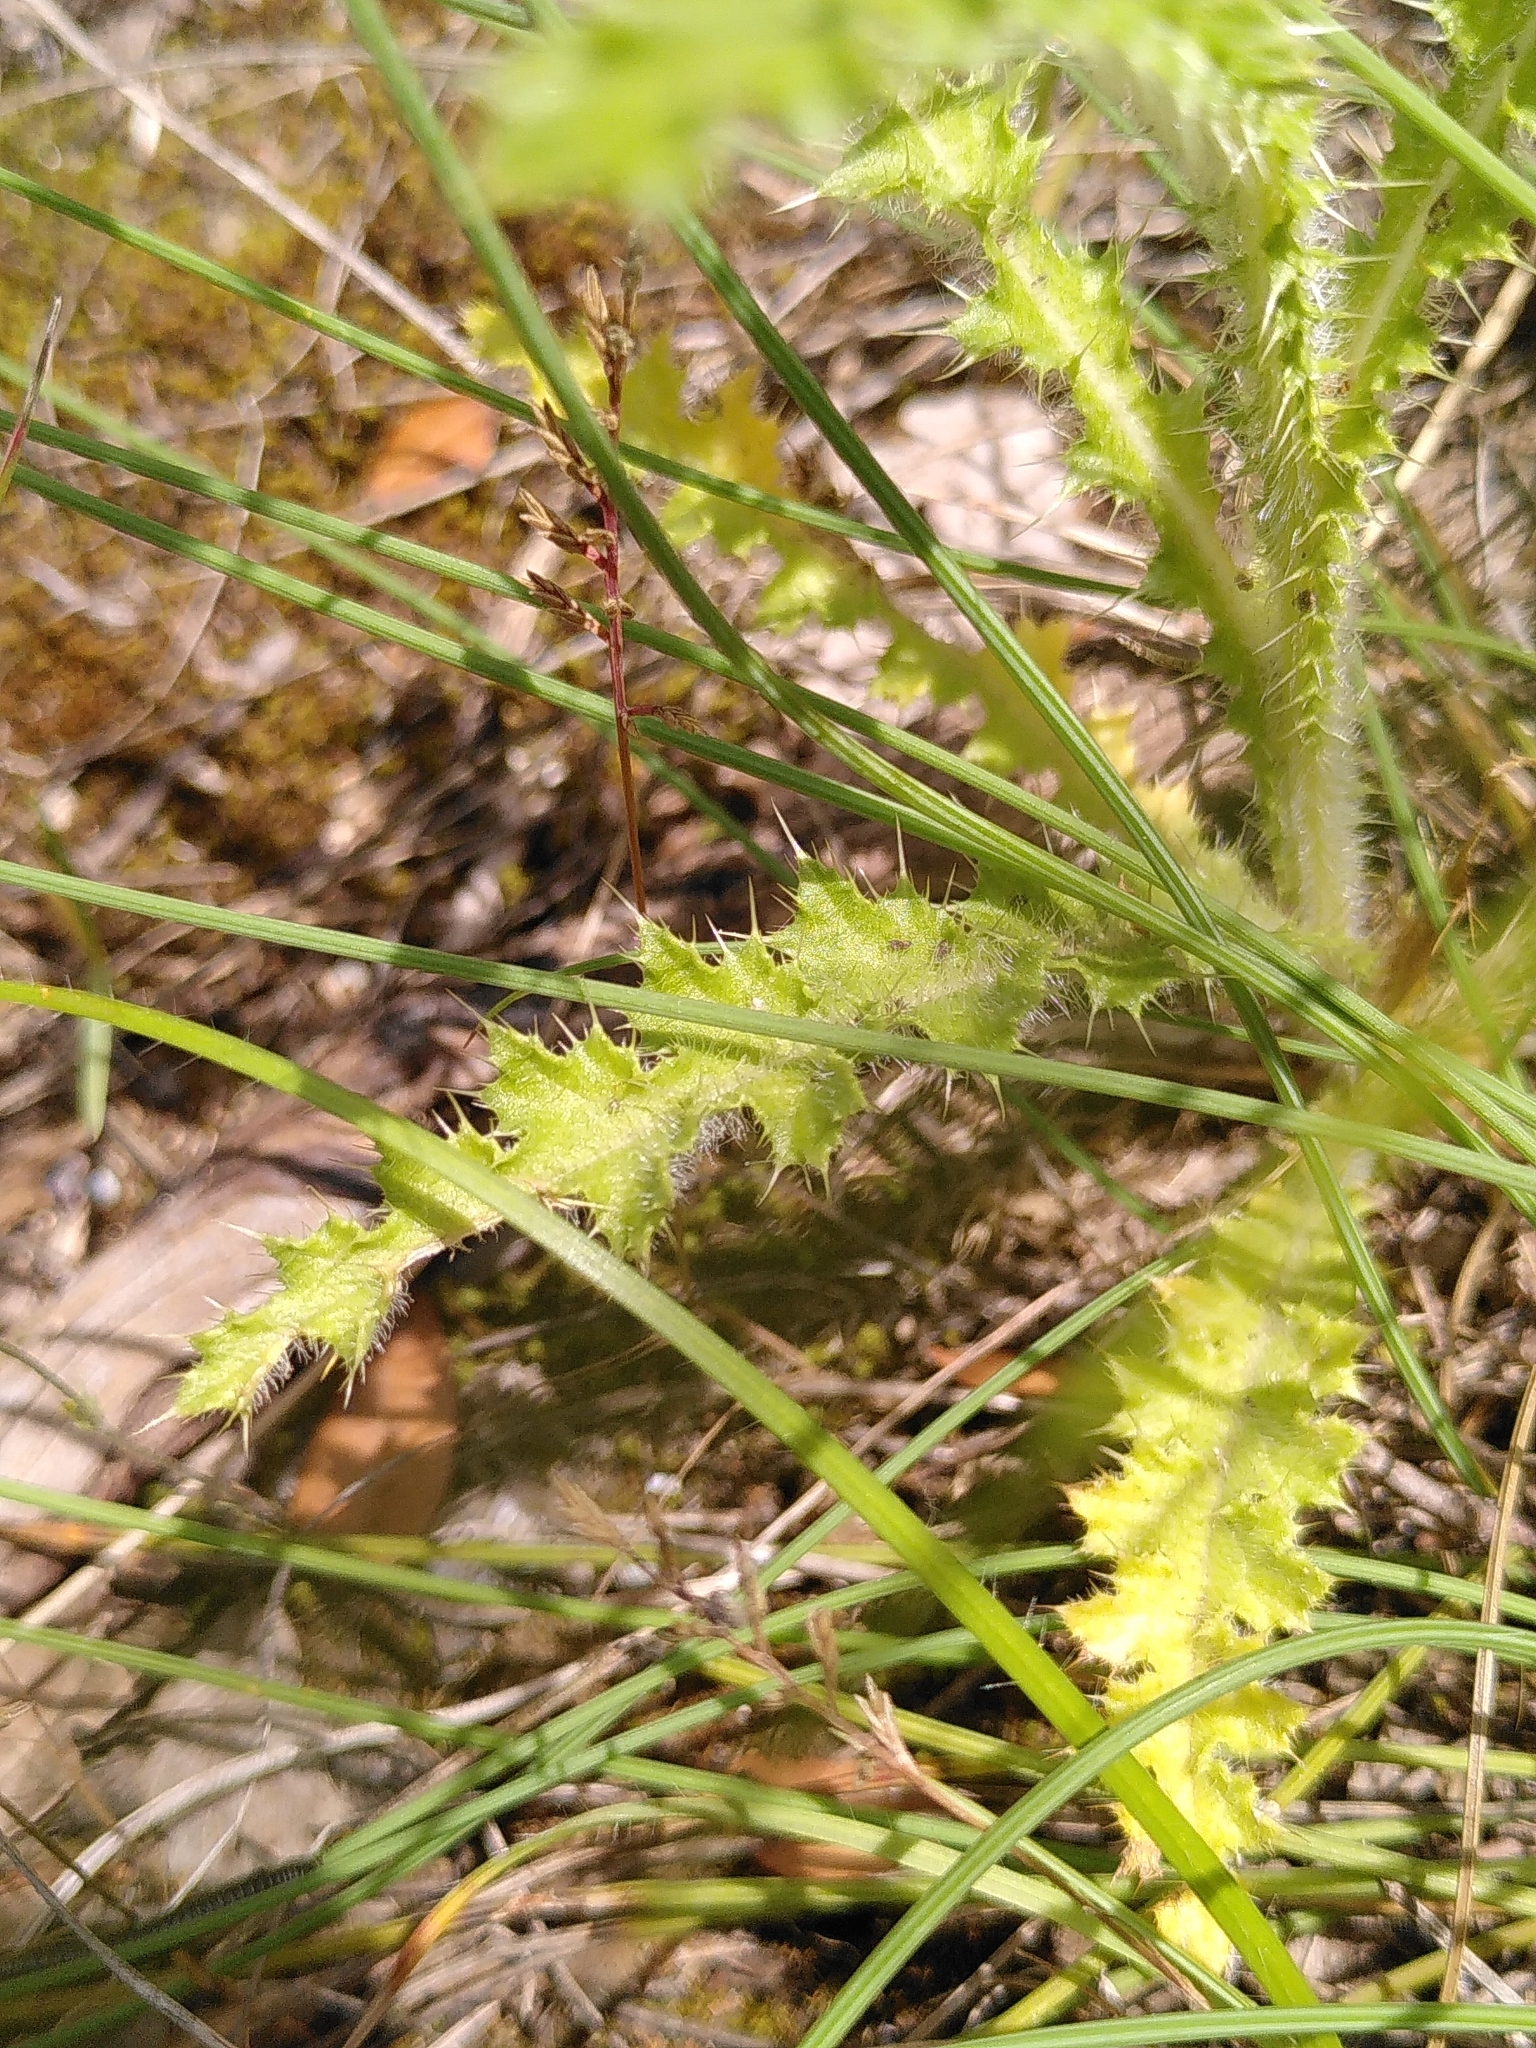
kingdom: Plantae
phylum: Tracheophyta
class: Magnoliopsida
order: Asterales
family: Asteraceae
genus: Carduus
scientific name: Carduus nigrescens
